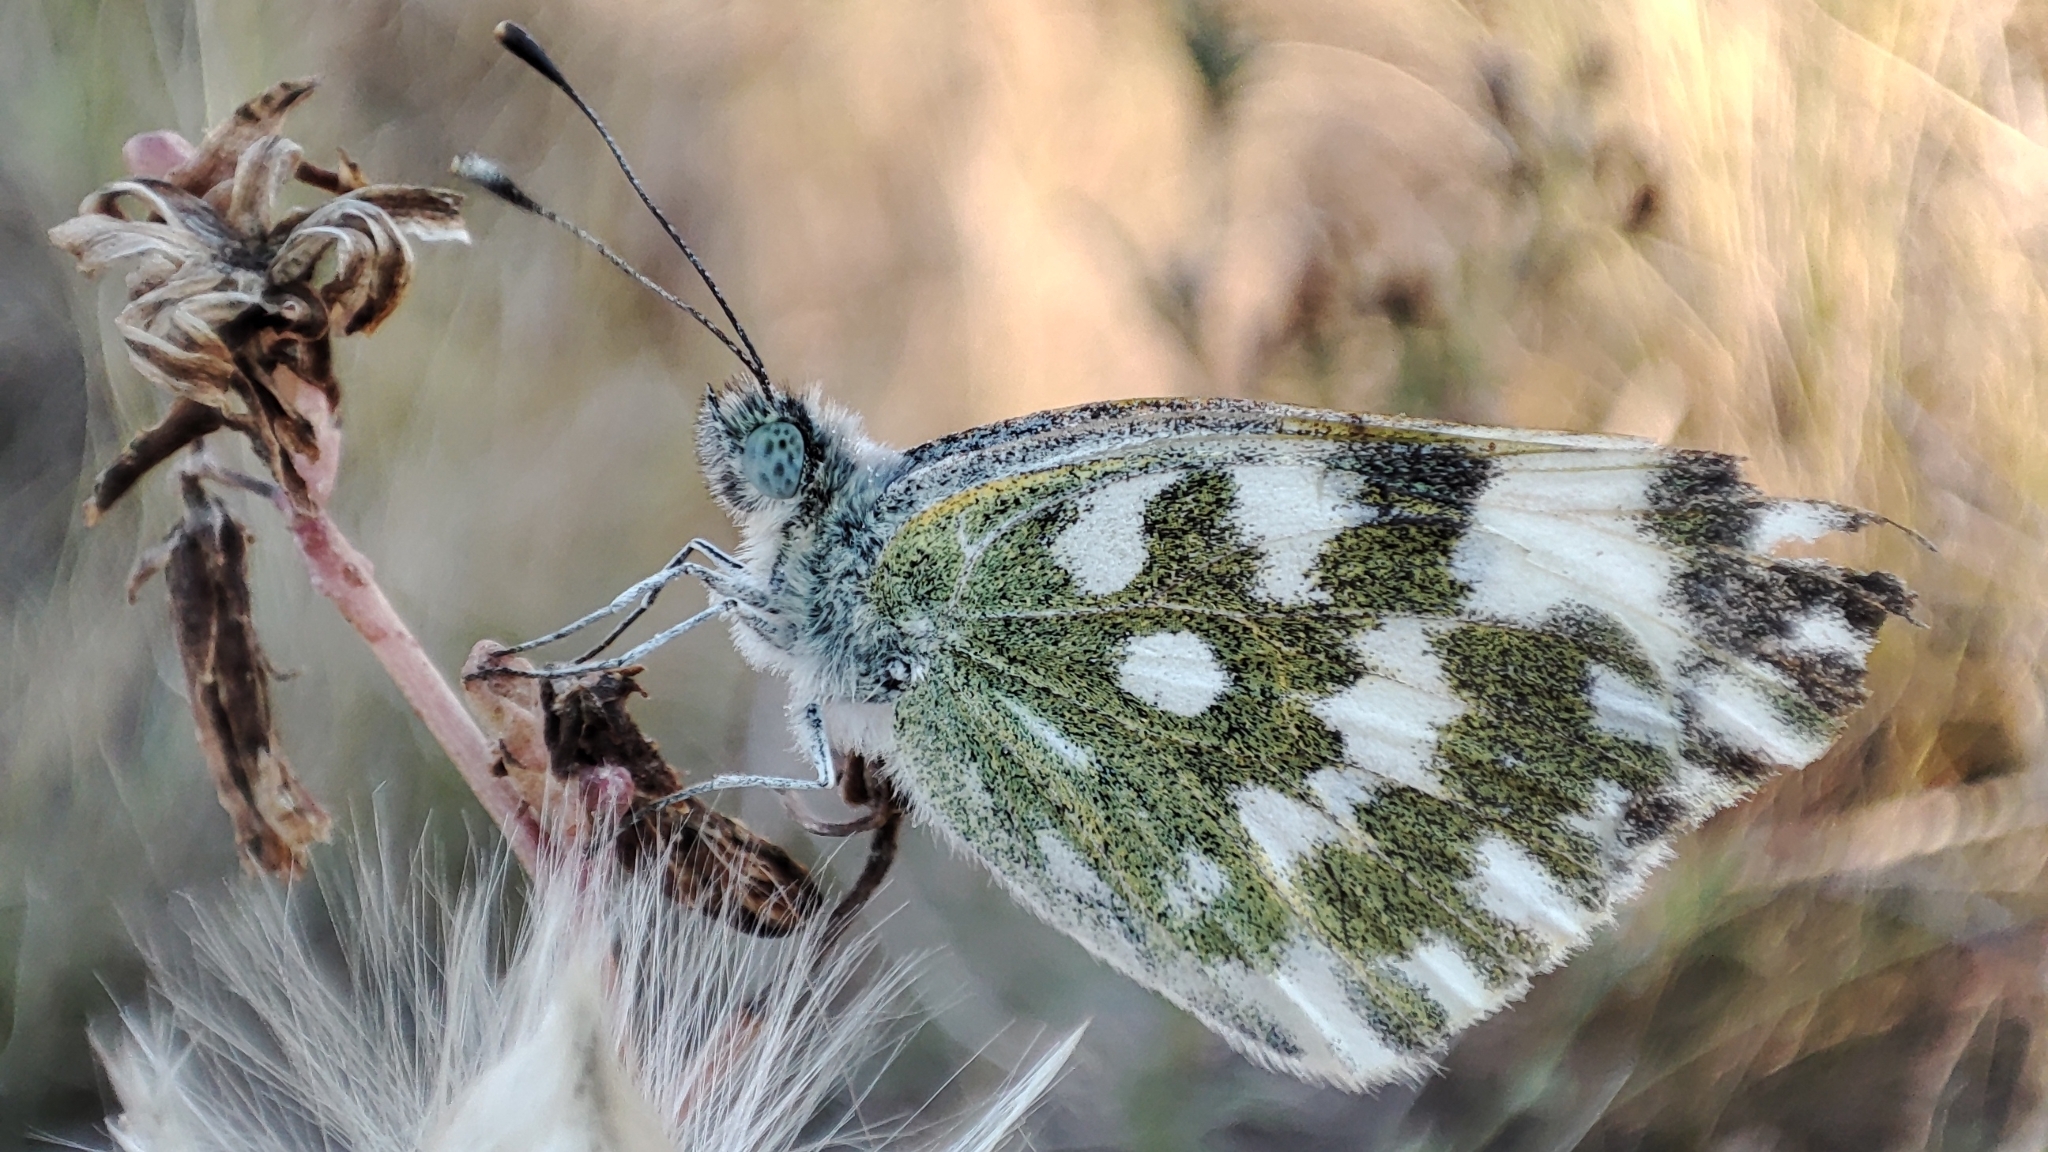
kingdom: Animalia
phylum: Arthropoda
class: Insecta
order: Lepidoptera
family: Pieridae
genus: Pontia
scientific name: Pontia edusa
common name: Eastern bath white
